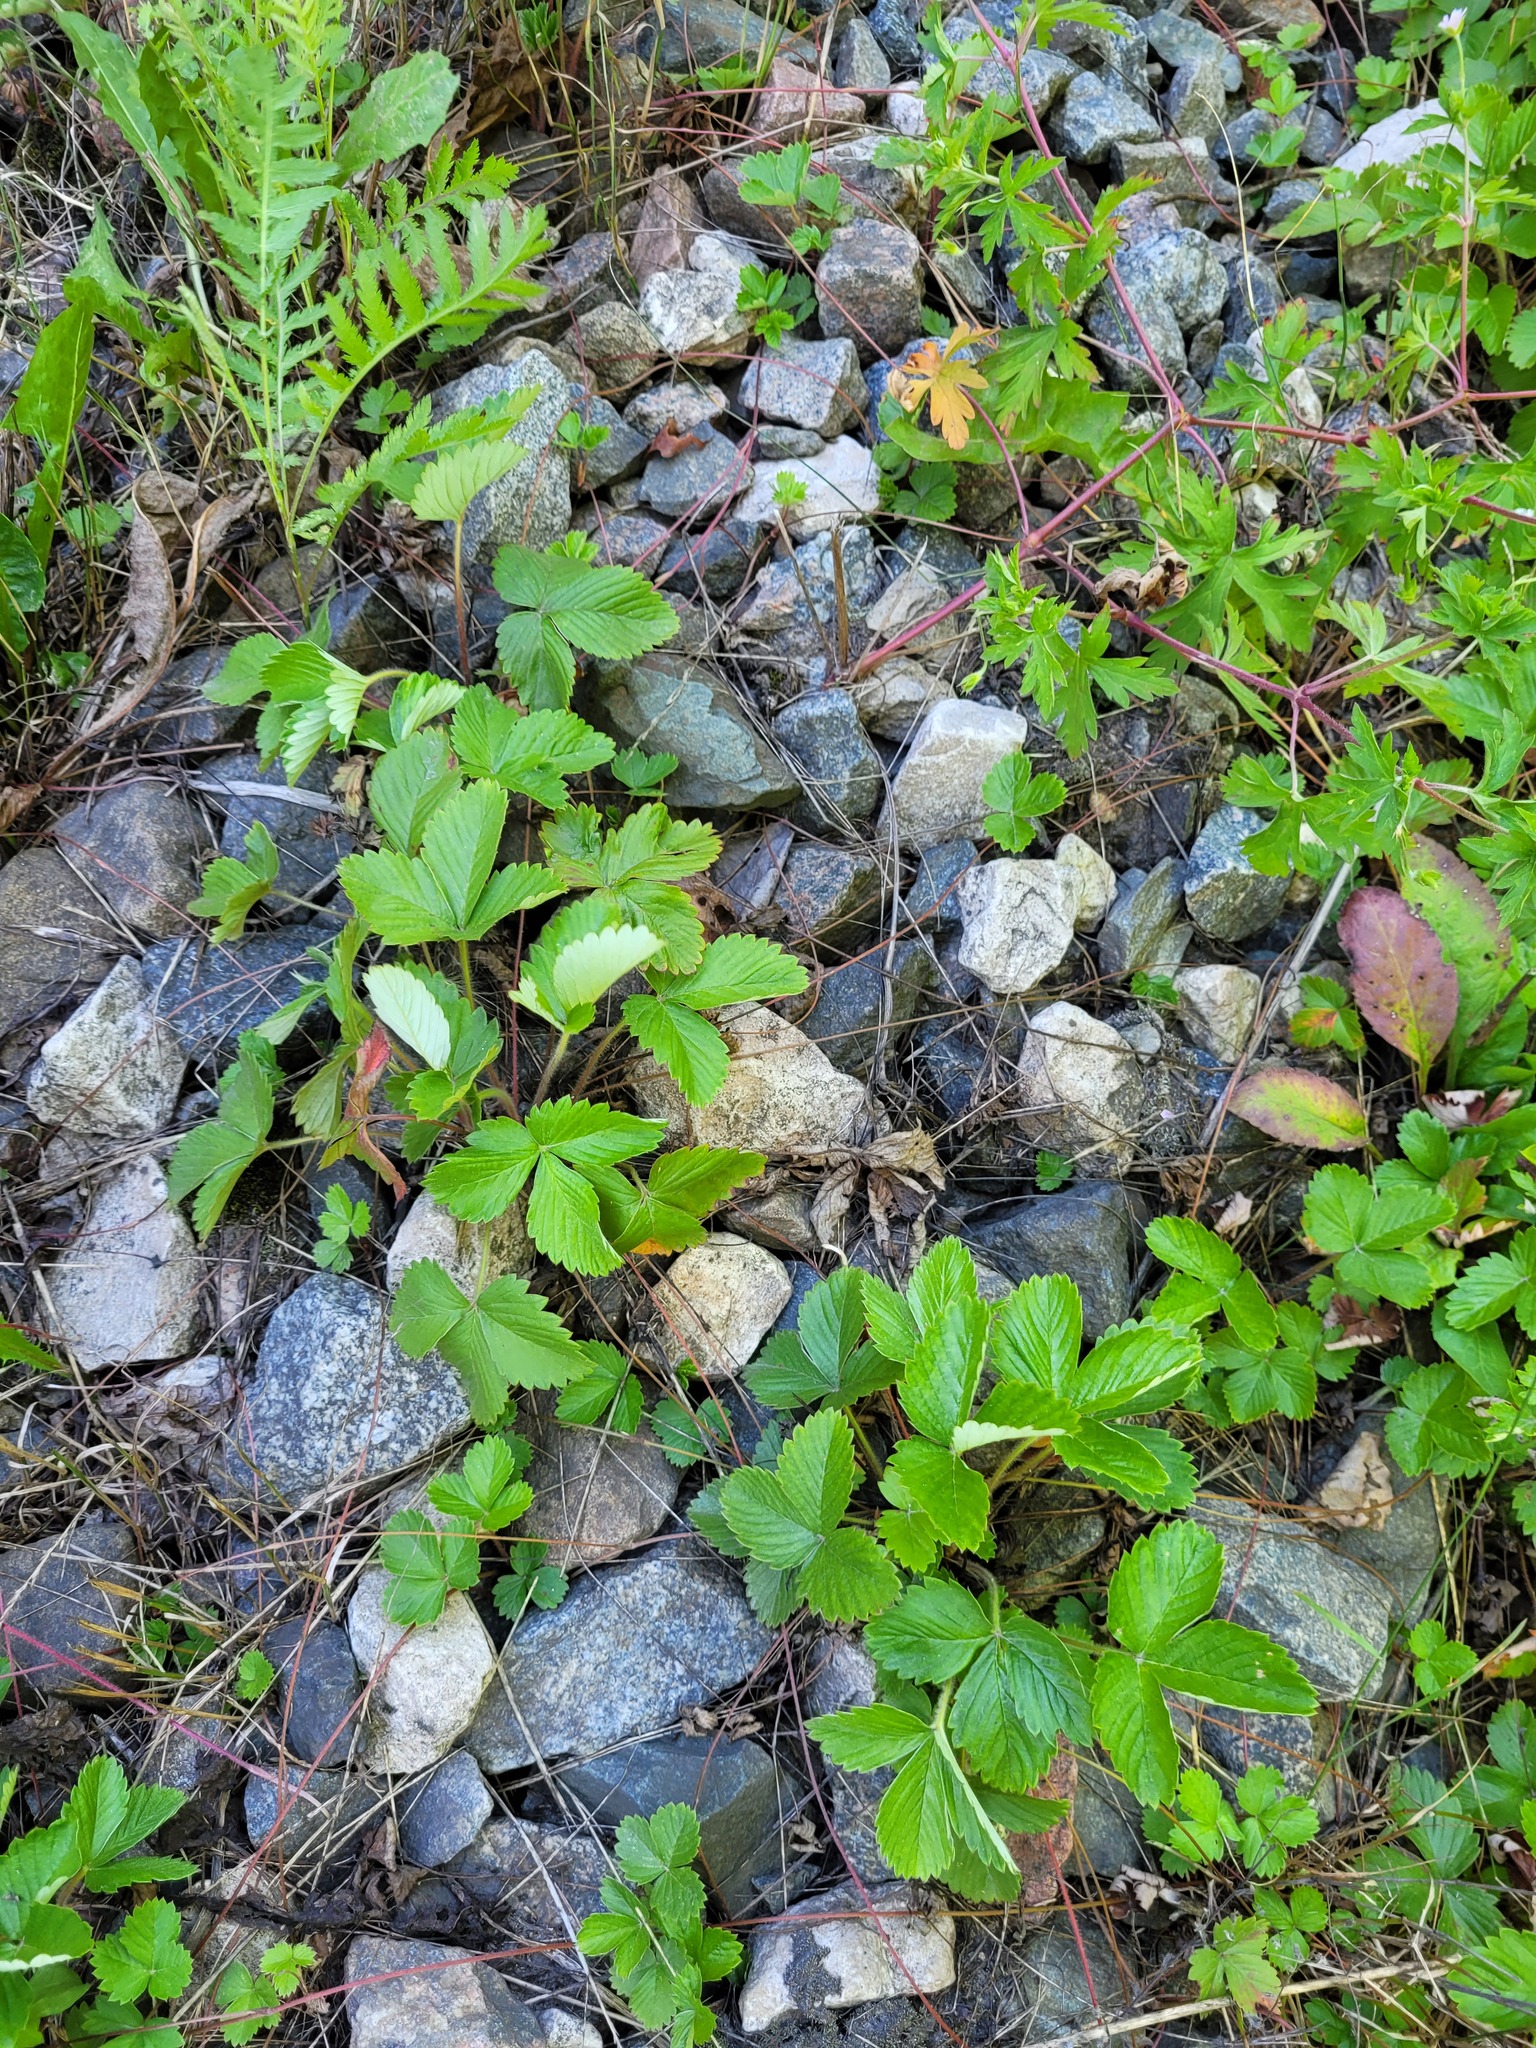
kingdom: Plantae
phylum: Tracheophyta
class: Magnoliopsida
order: Rosales
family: Rosaceae
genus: Fragaria
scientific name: Fragaria viridis
